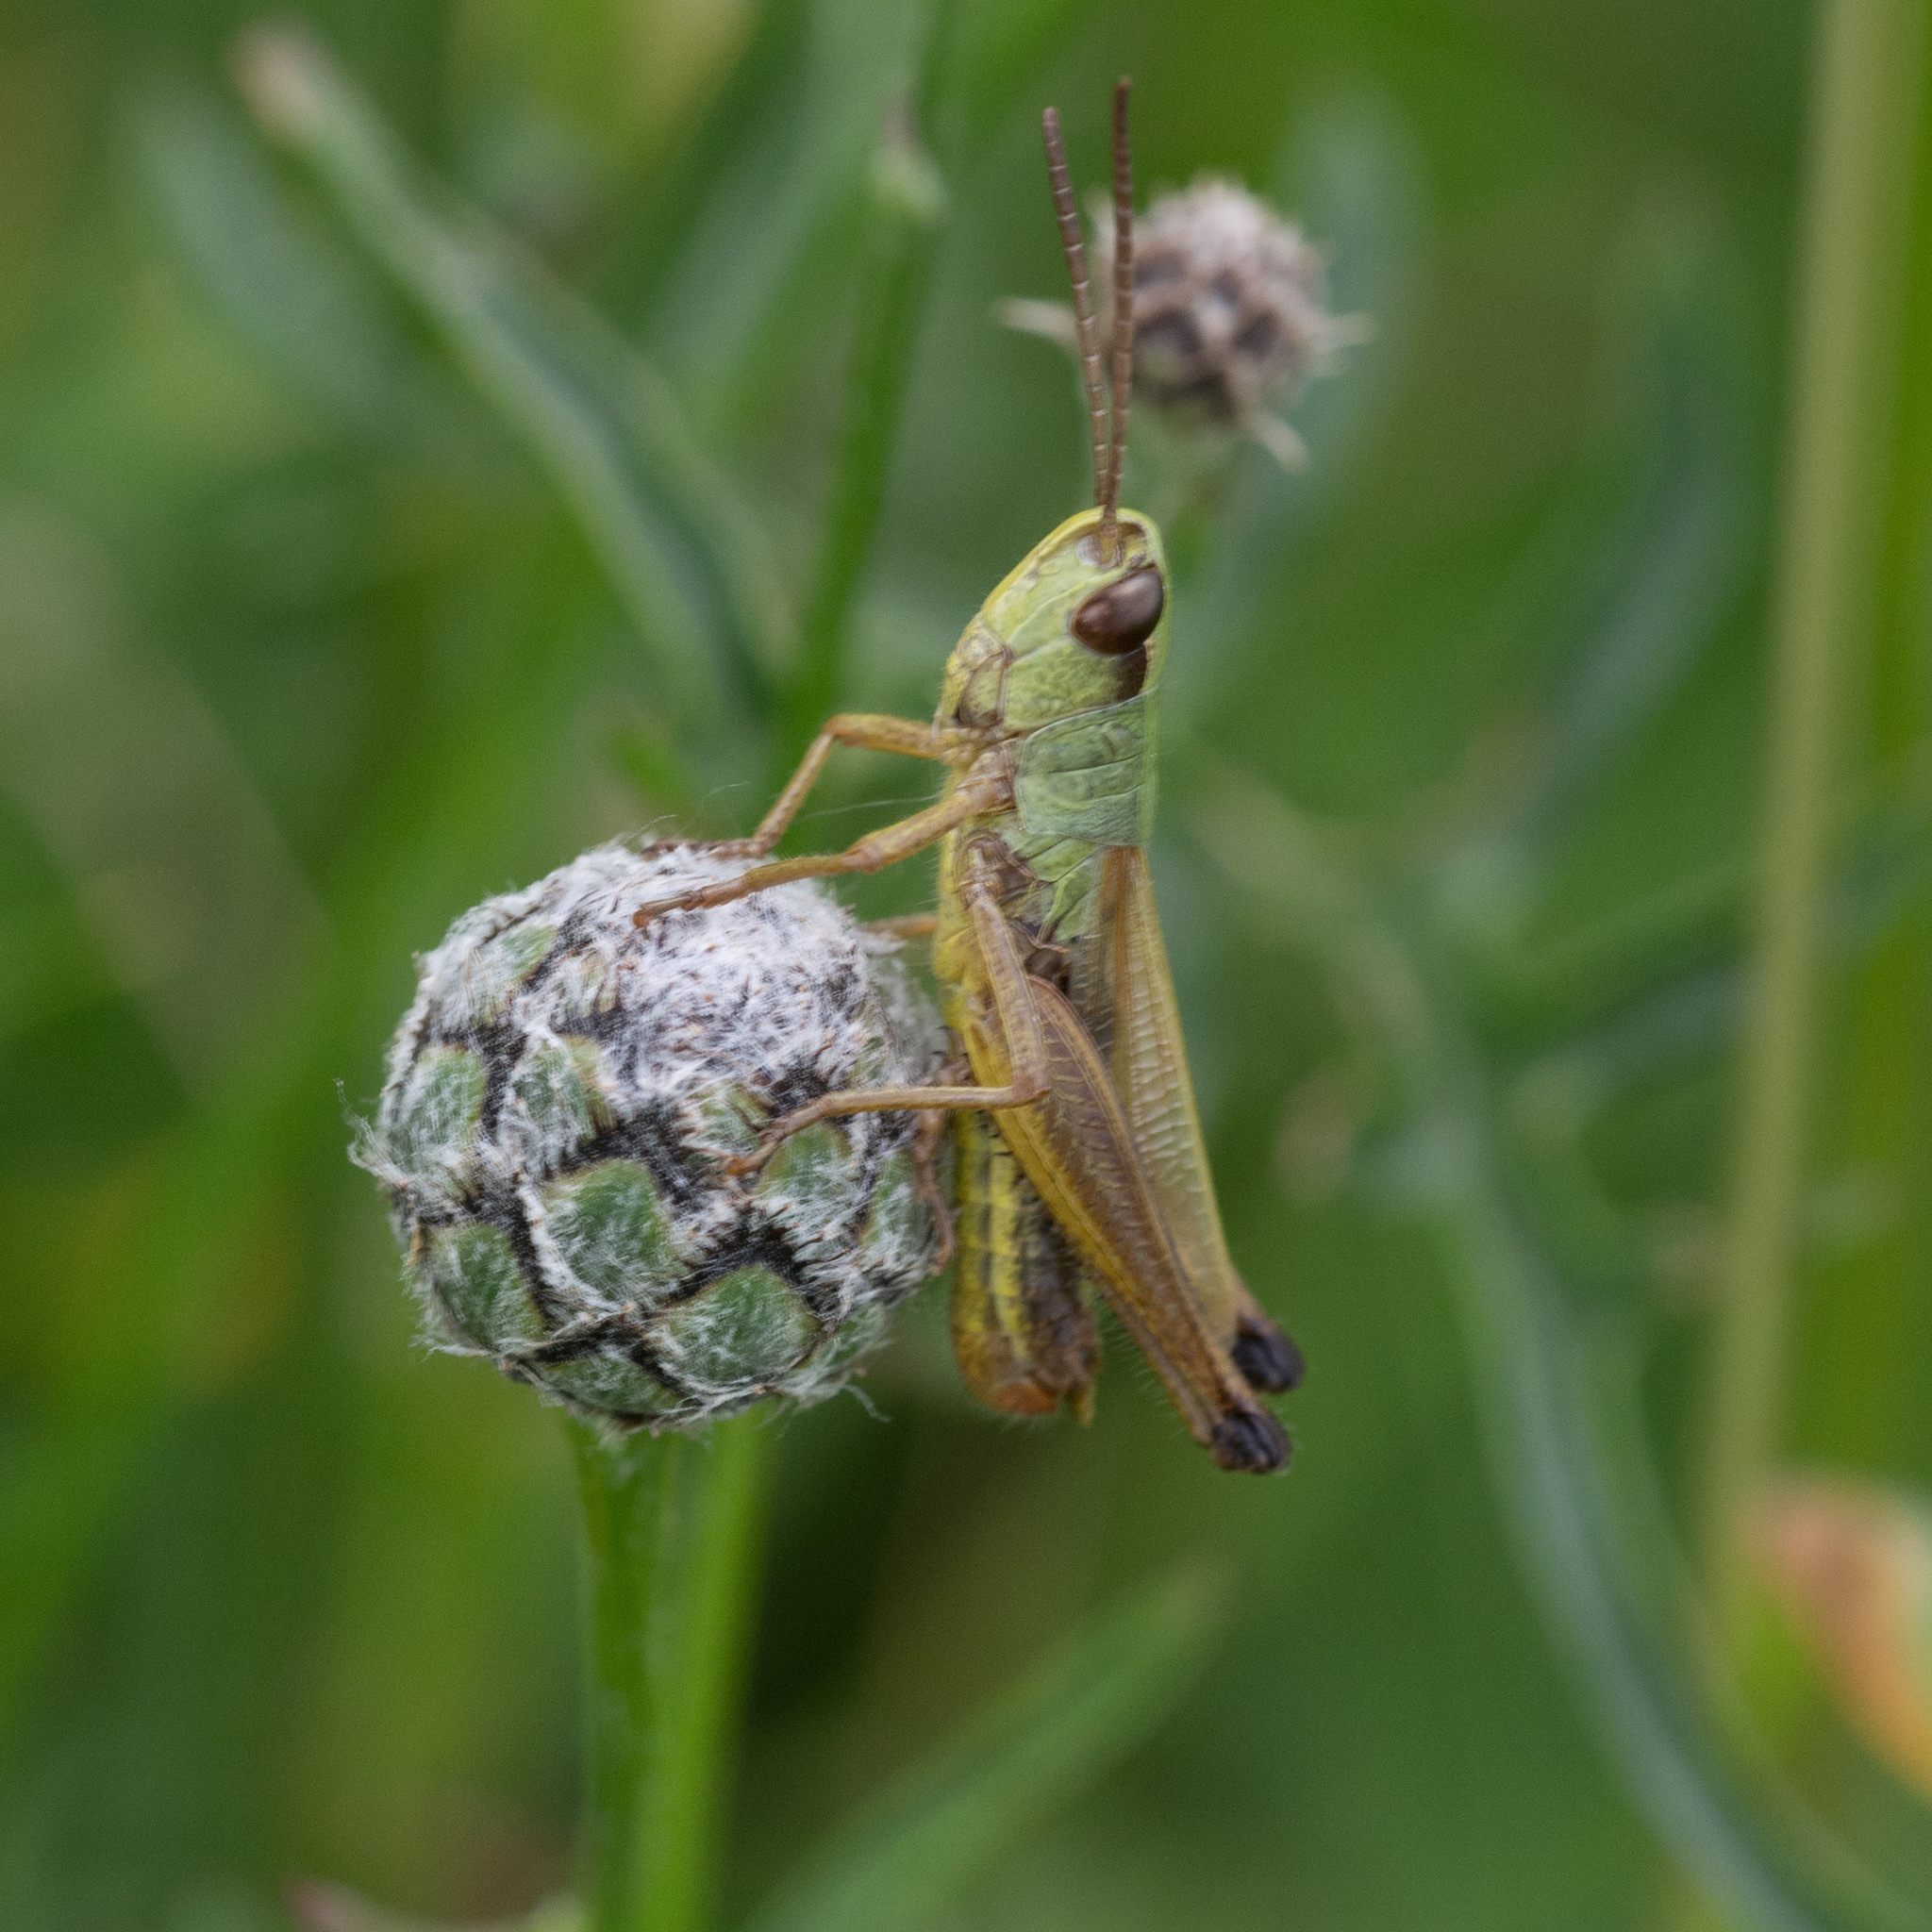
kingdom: Animalia
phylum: Arthropoda
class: Insecta
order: Orthoptera
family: Acrididae
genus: Pseudochorthippus
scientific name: Pseudochorthippus parallelus
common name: Meadow grasshopper
